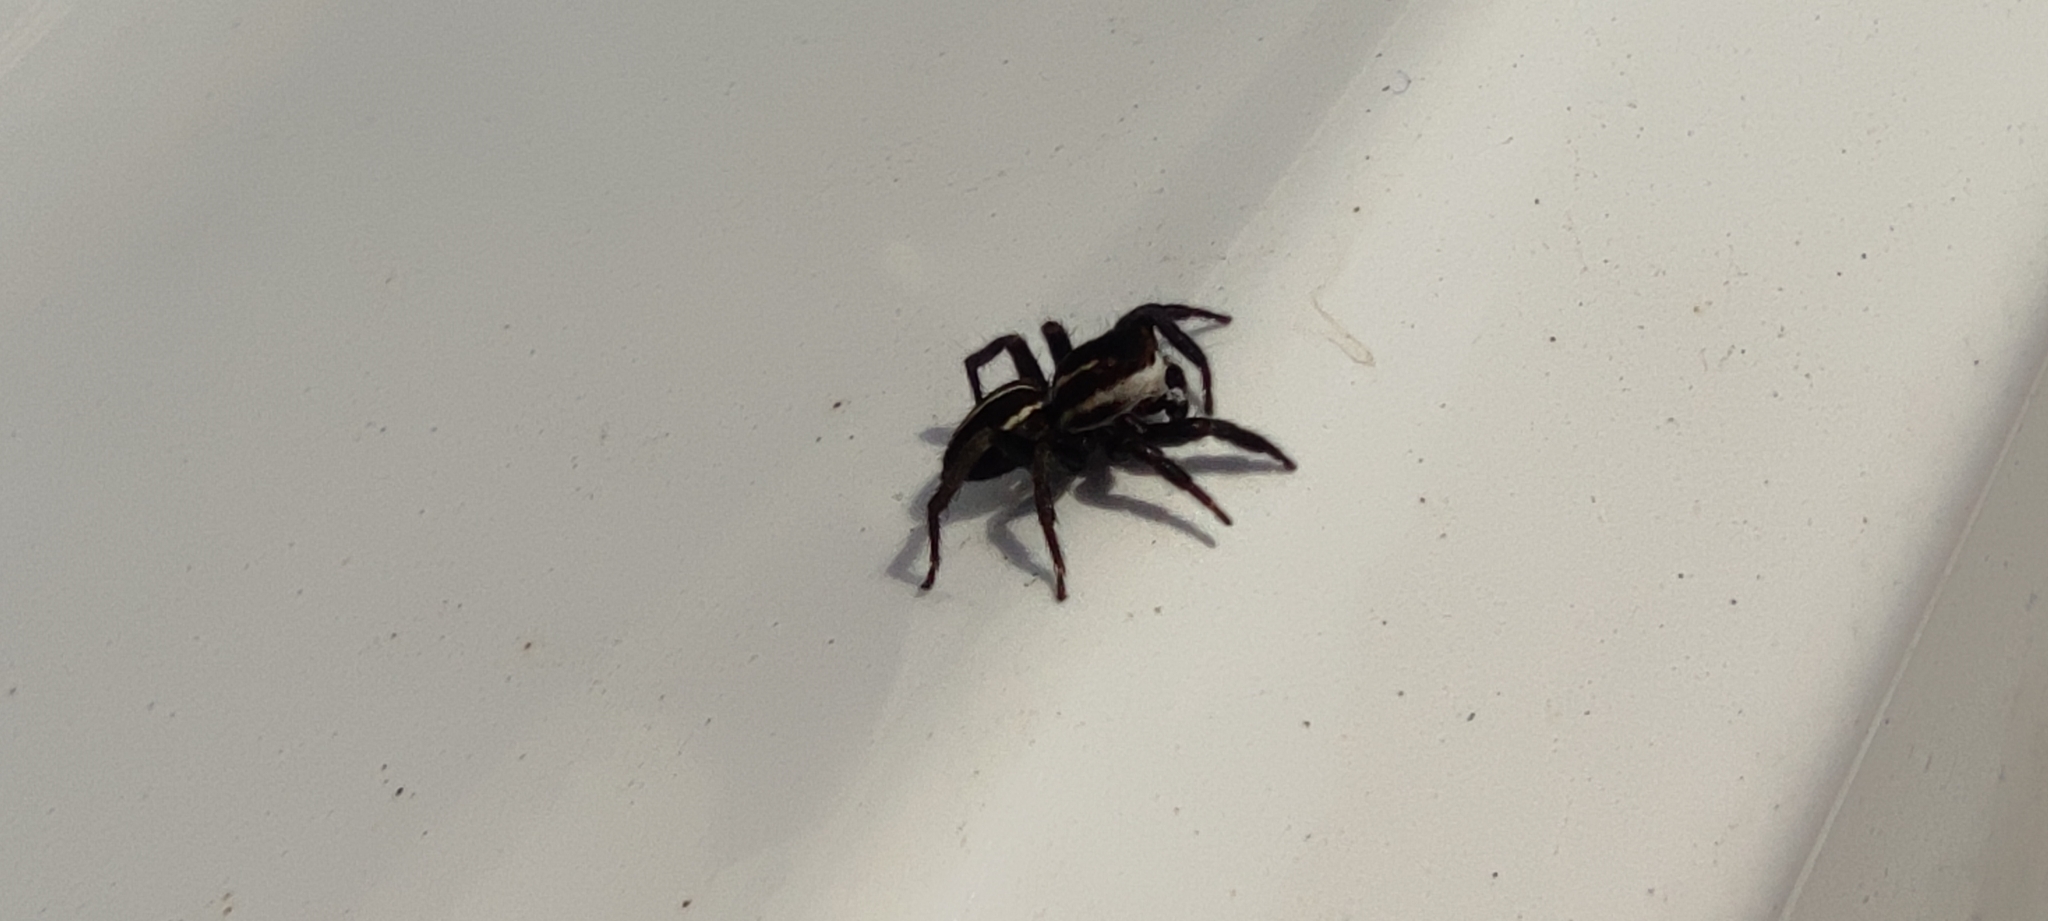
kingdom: Animalia
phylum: Arthropoda
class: Arachnida
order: Araneae
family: Salticidae
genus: Phlegra
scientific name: Phlegra bresnieri
